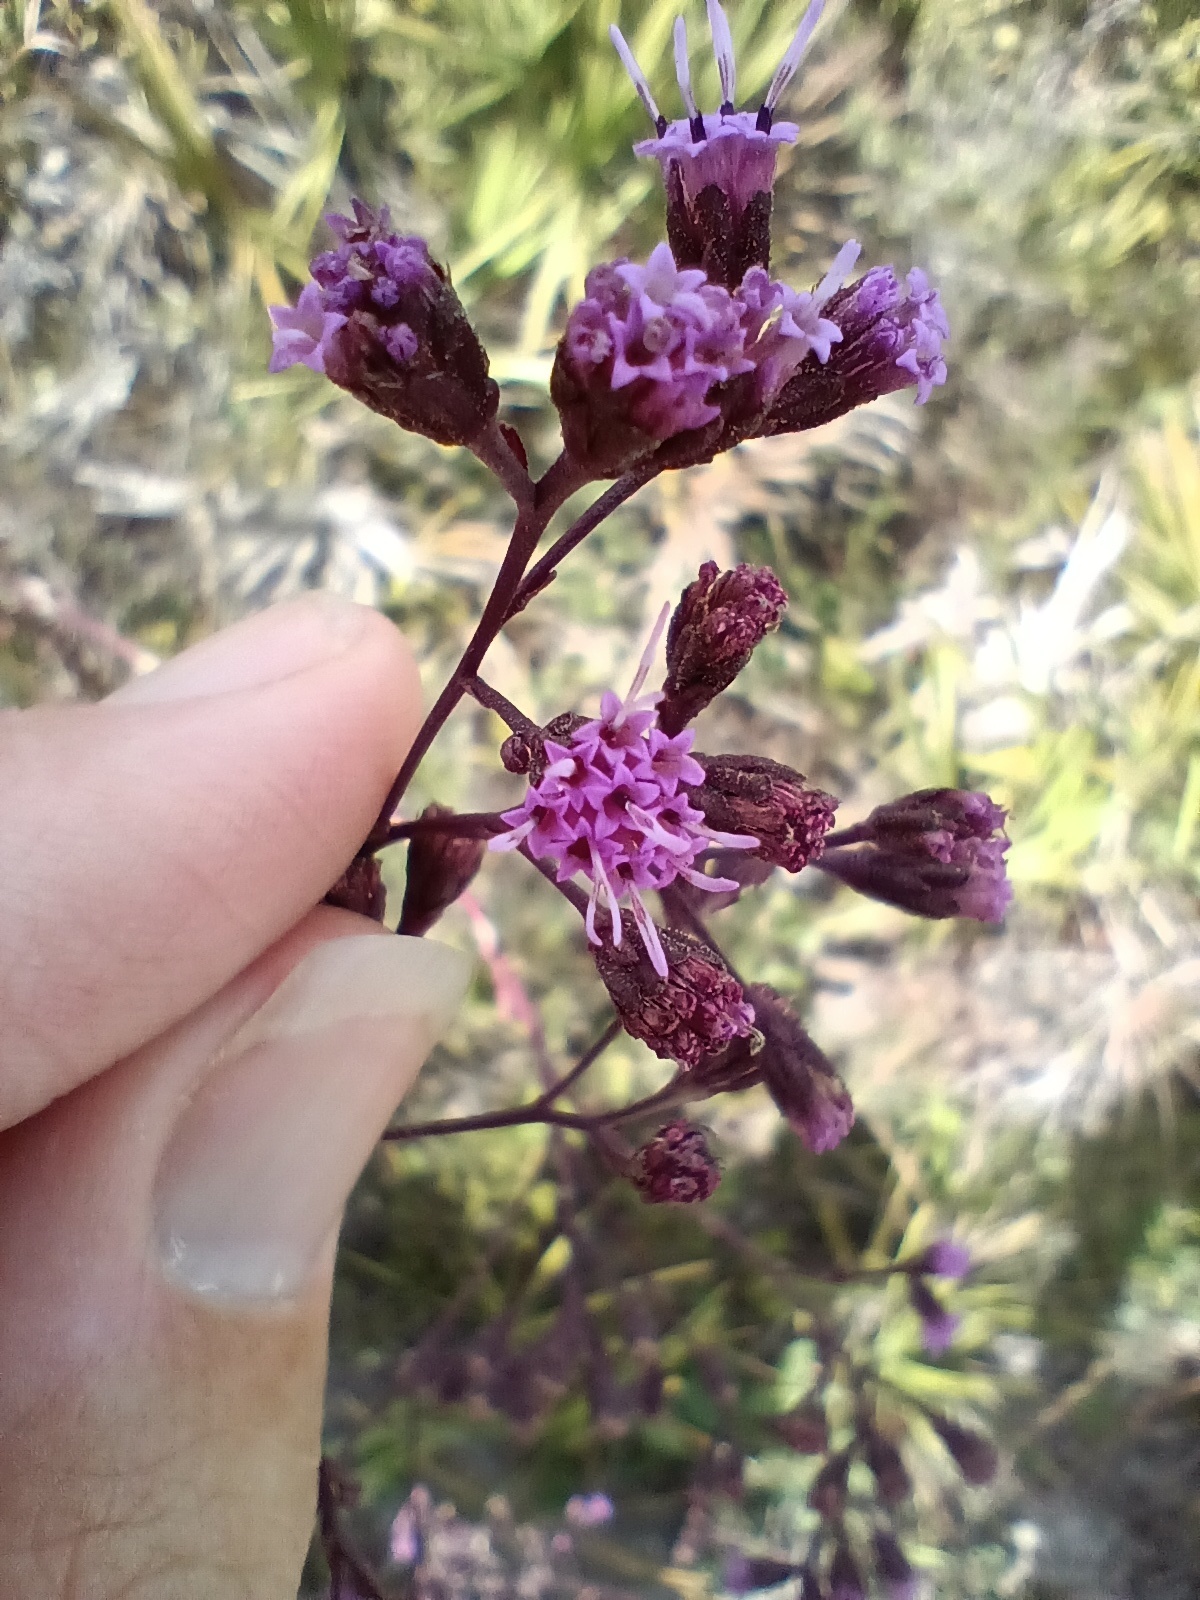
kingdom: Plantae
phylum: Tracheophyta
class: Magnoliopsida
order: Asterales
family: Asteraceae
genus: Carphephorus
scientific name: Carphephorus
